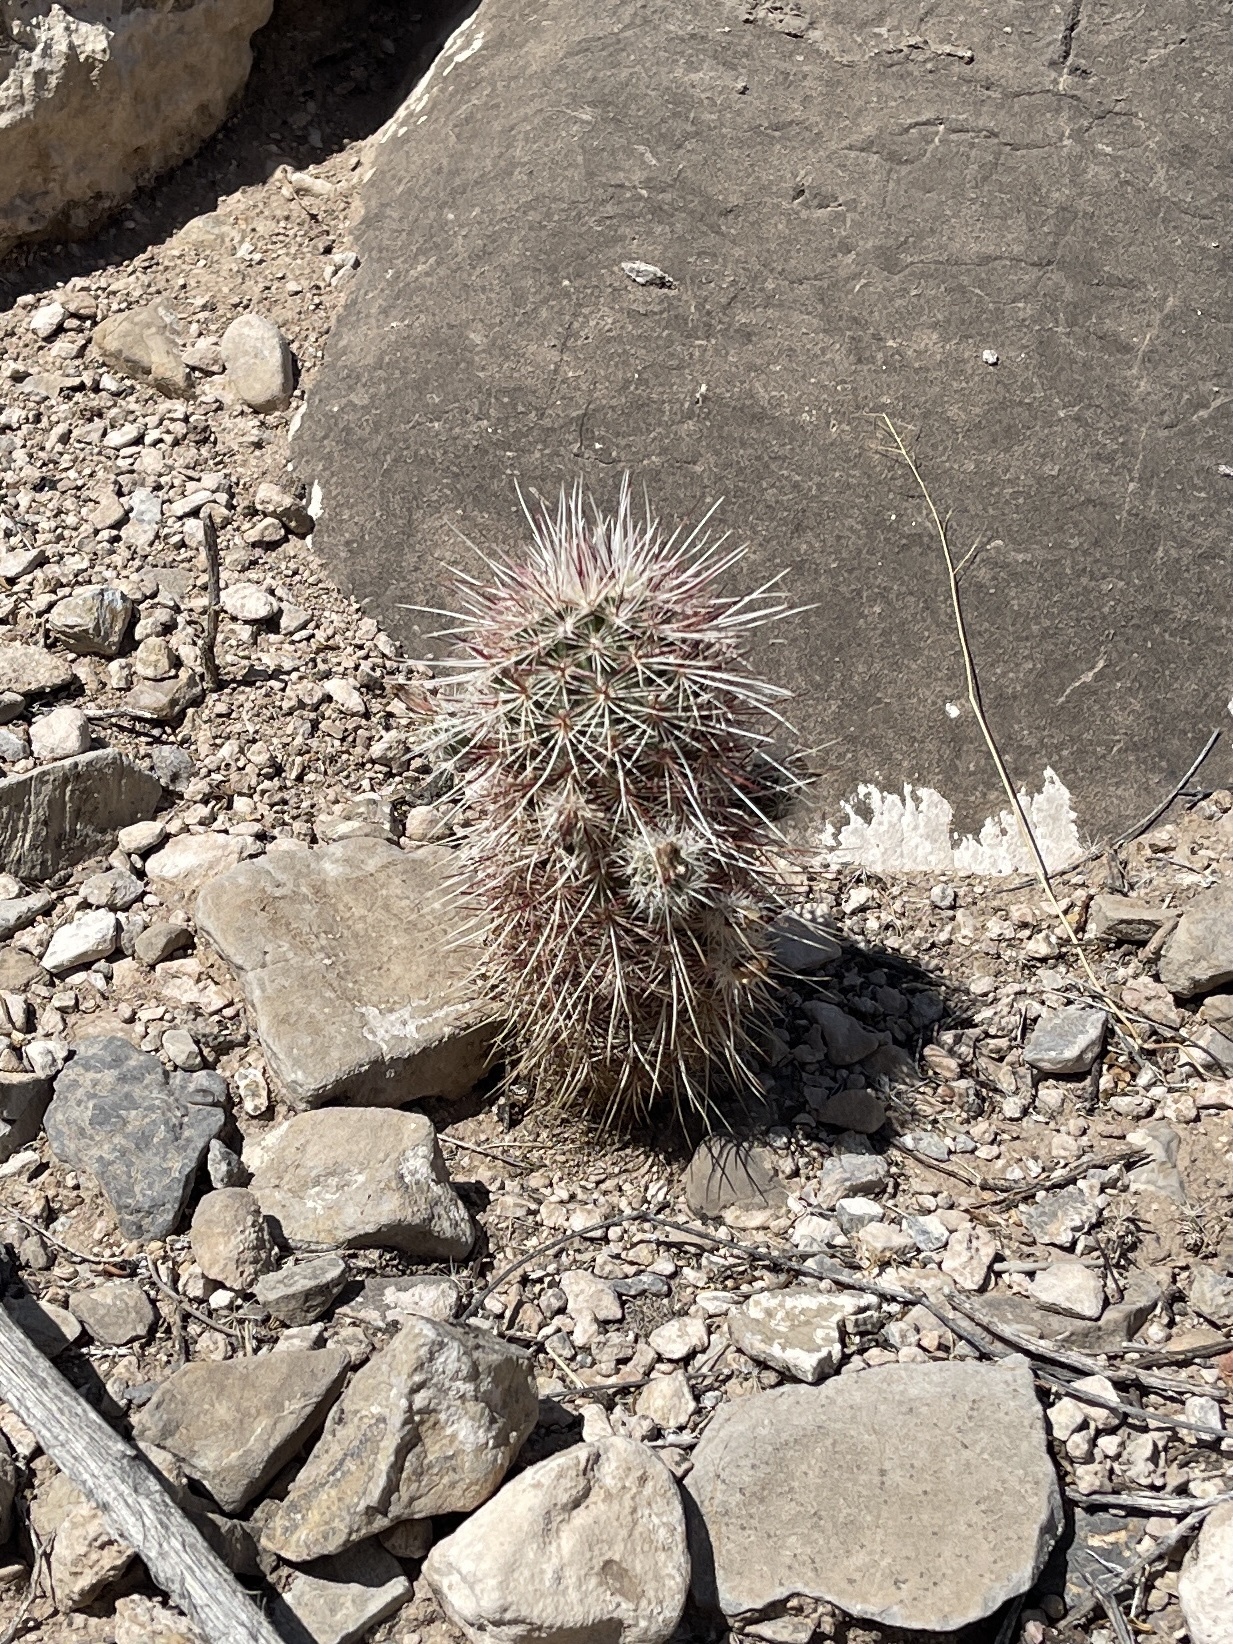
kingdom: Plantae
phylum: Tracheophyta
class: Magnoliopsida
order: Caryophyllales
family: Cactaceae
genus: Echinocereus
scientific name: Echinocereus viridiflorus
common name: Nylon hedgehog cactus
